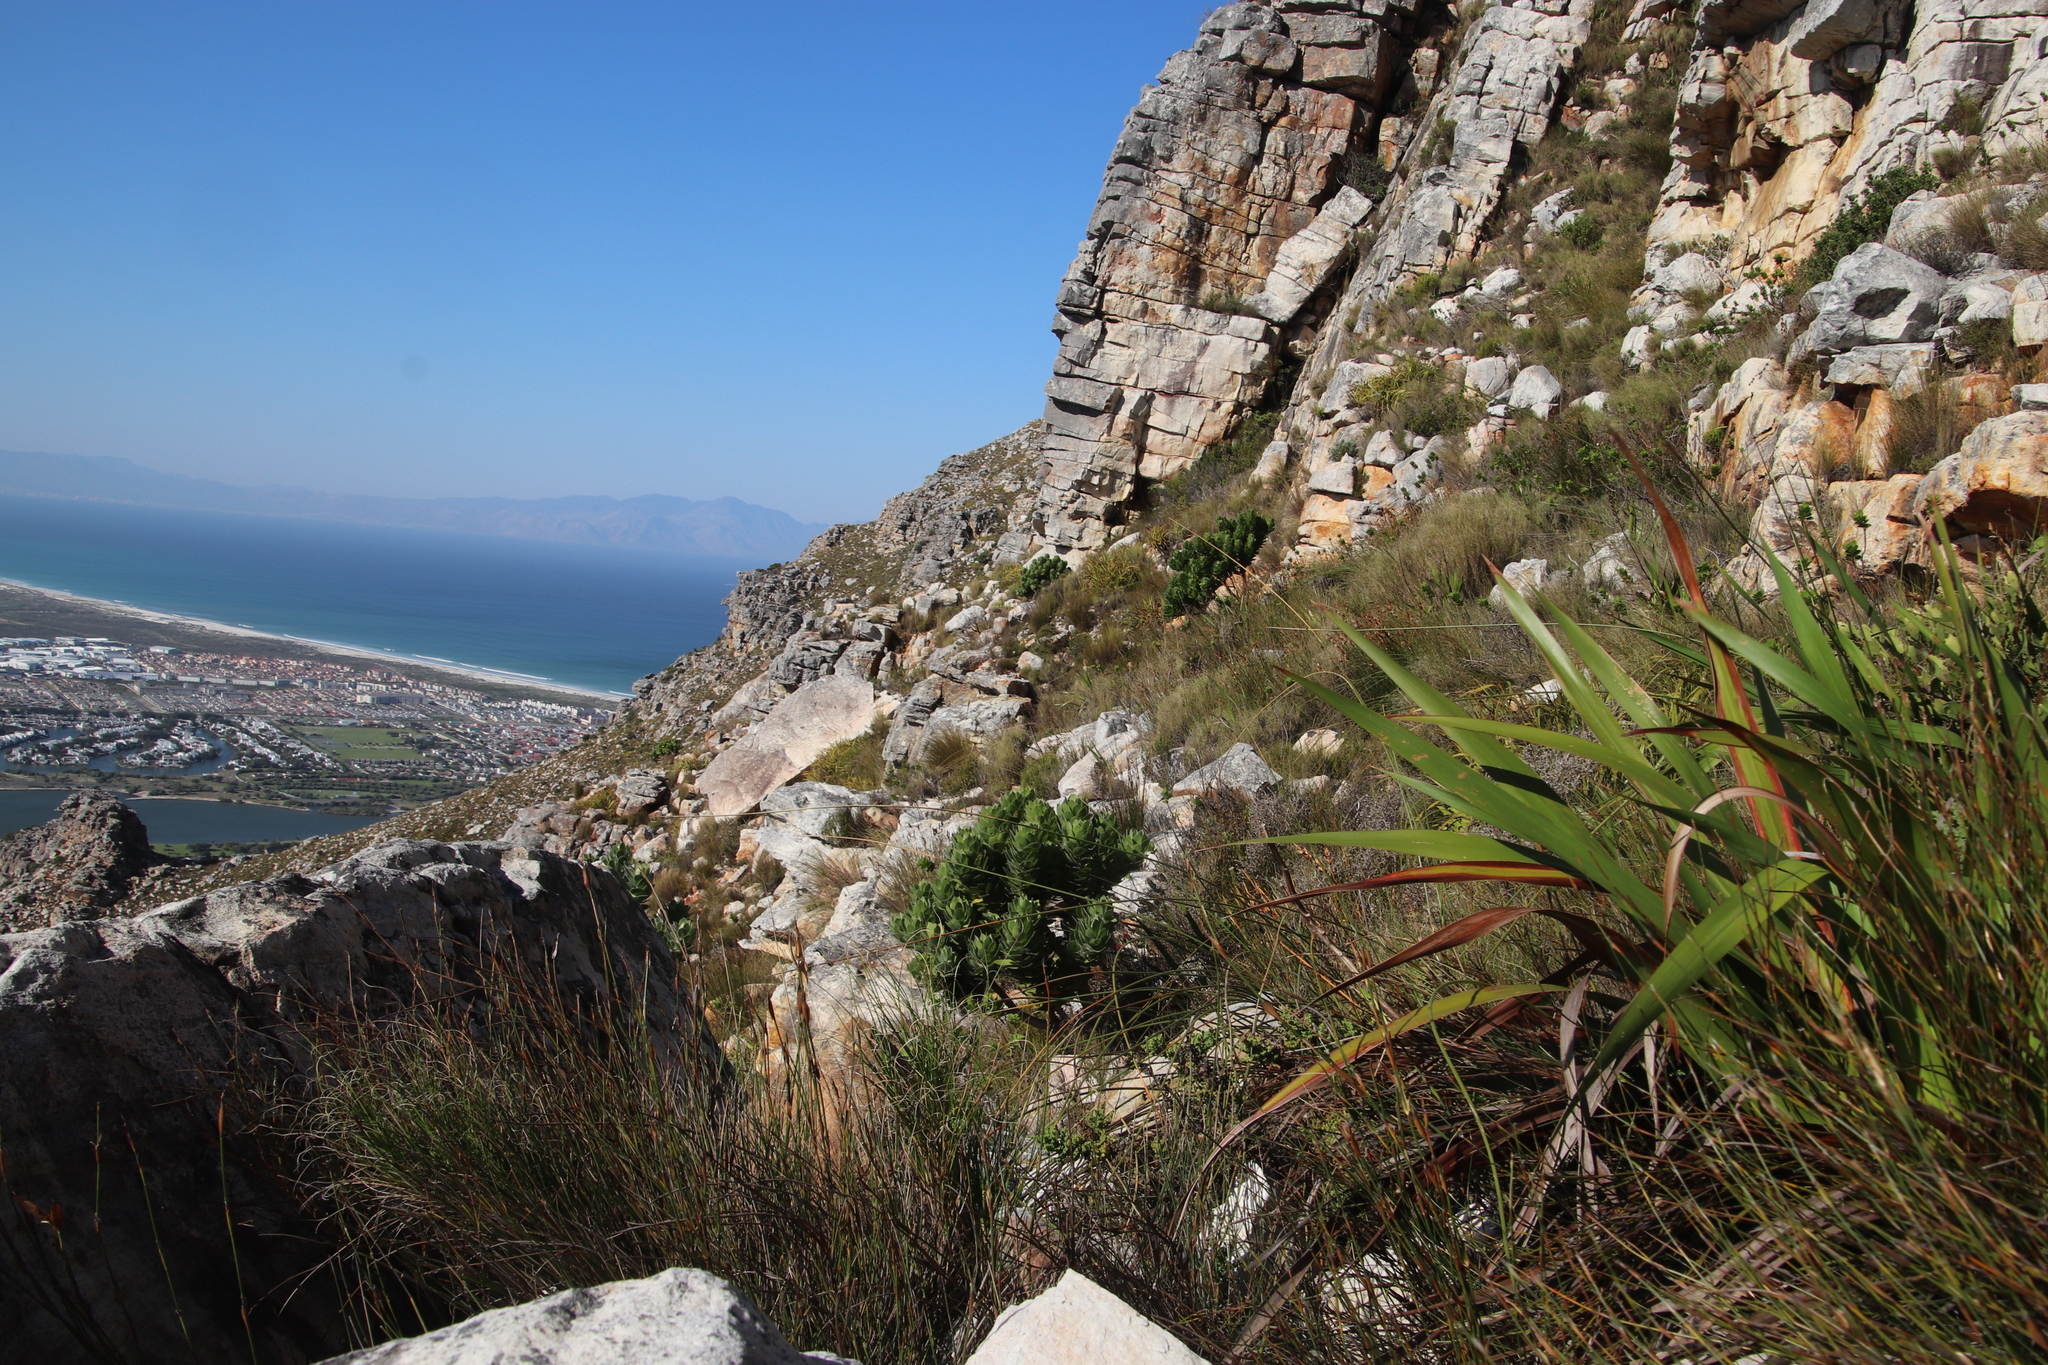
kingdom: Plantae
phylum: Tracheophyta
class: Magnoliopsida
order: Proteales
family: Proteaceae
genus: Leucospermum
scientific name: Leucospermum conocarpodendron
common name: Tree pincushion
